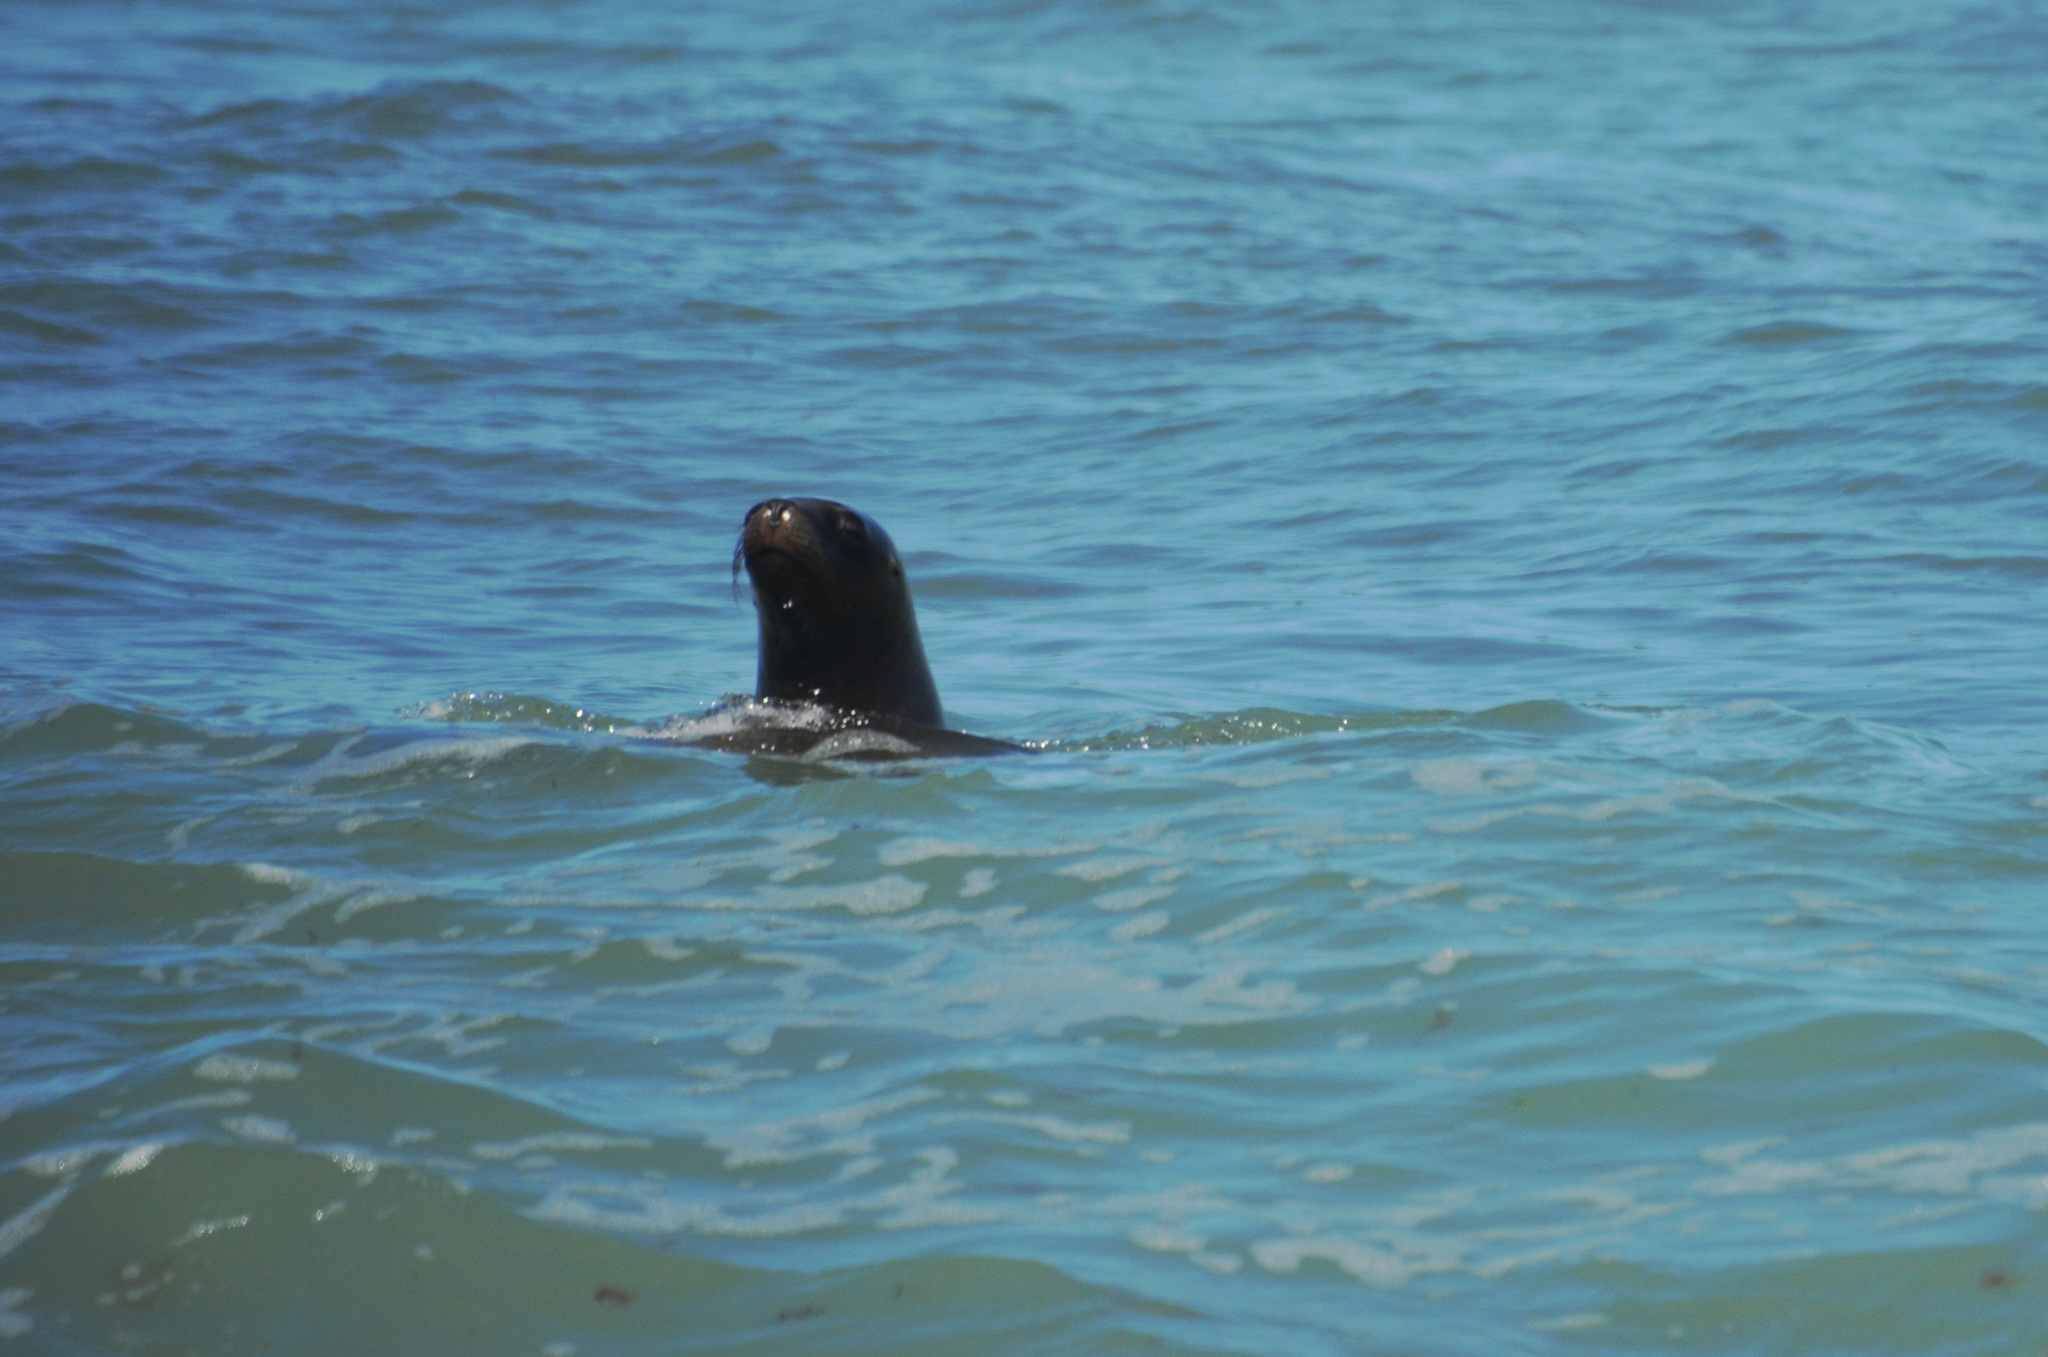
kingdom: Animalia
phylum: Chordata
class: Mammalia
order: Carnivora
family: Otariidae
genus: Otaria
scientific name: Otaria byronia
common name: South american sea lion
